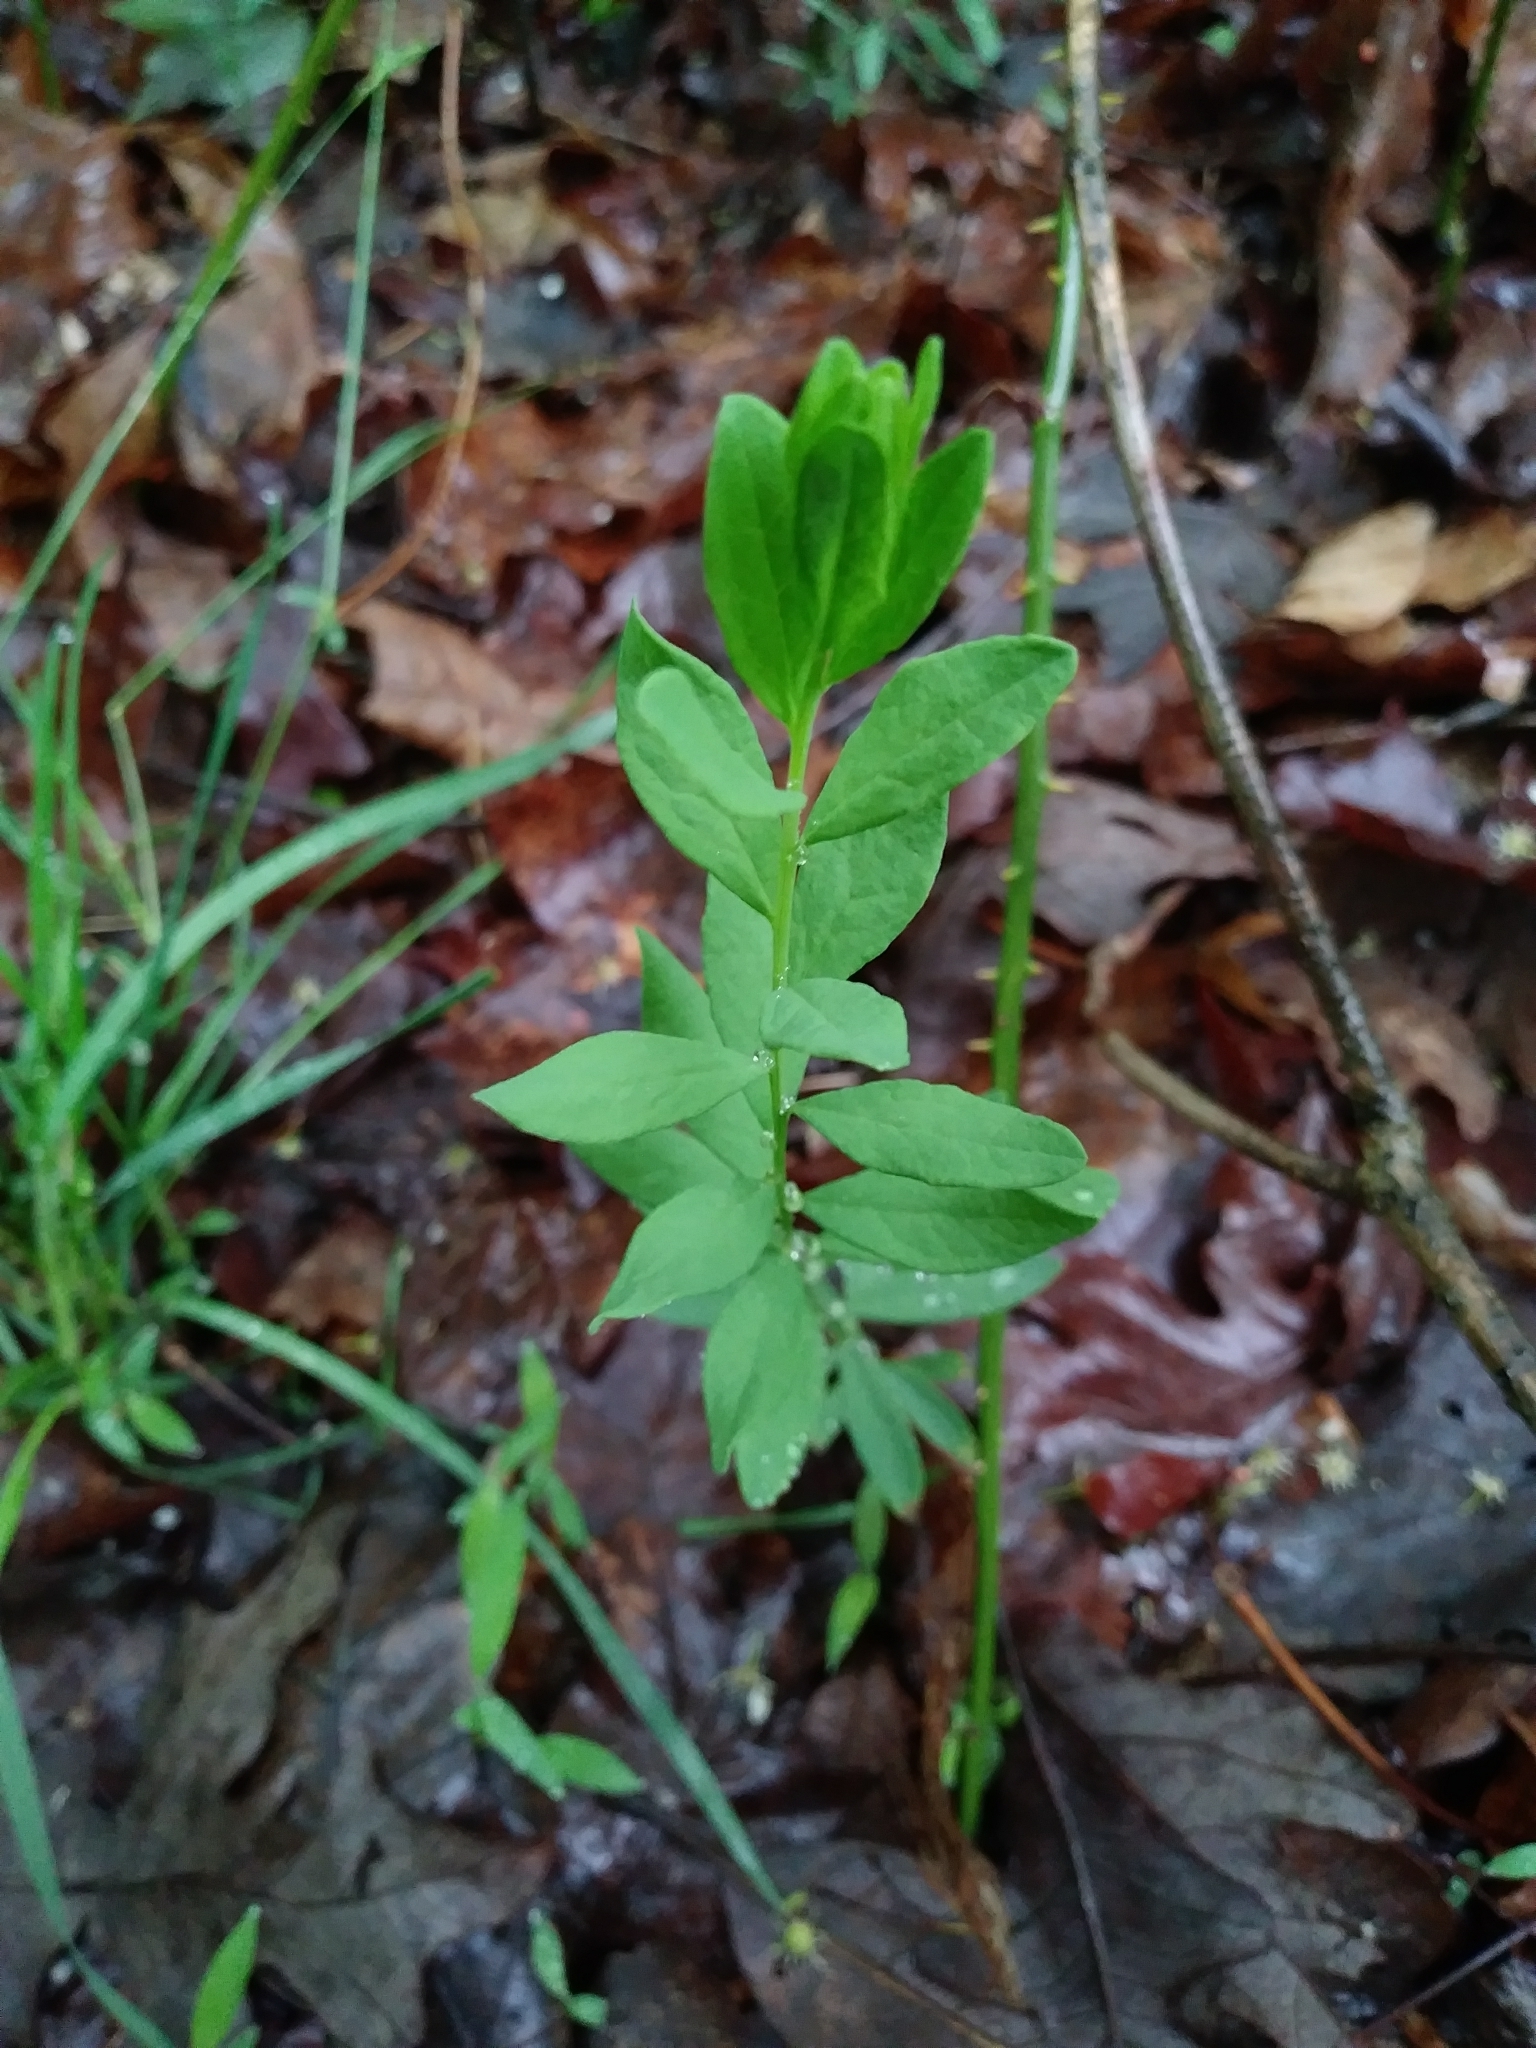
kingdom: Plantae
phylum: Tracheophyta
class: Magnoliopsida
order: Santalales
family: Comandraceae
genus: Comandra
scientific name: Comandra umbellata
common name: Bastard toadflax
